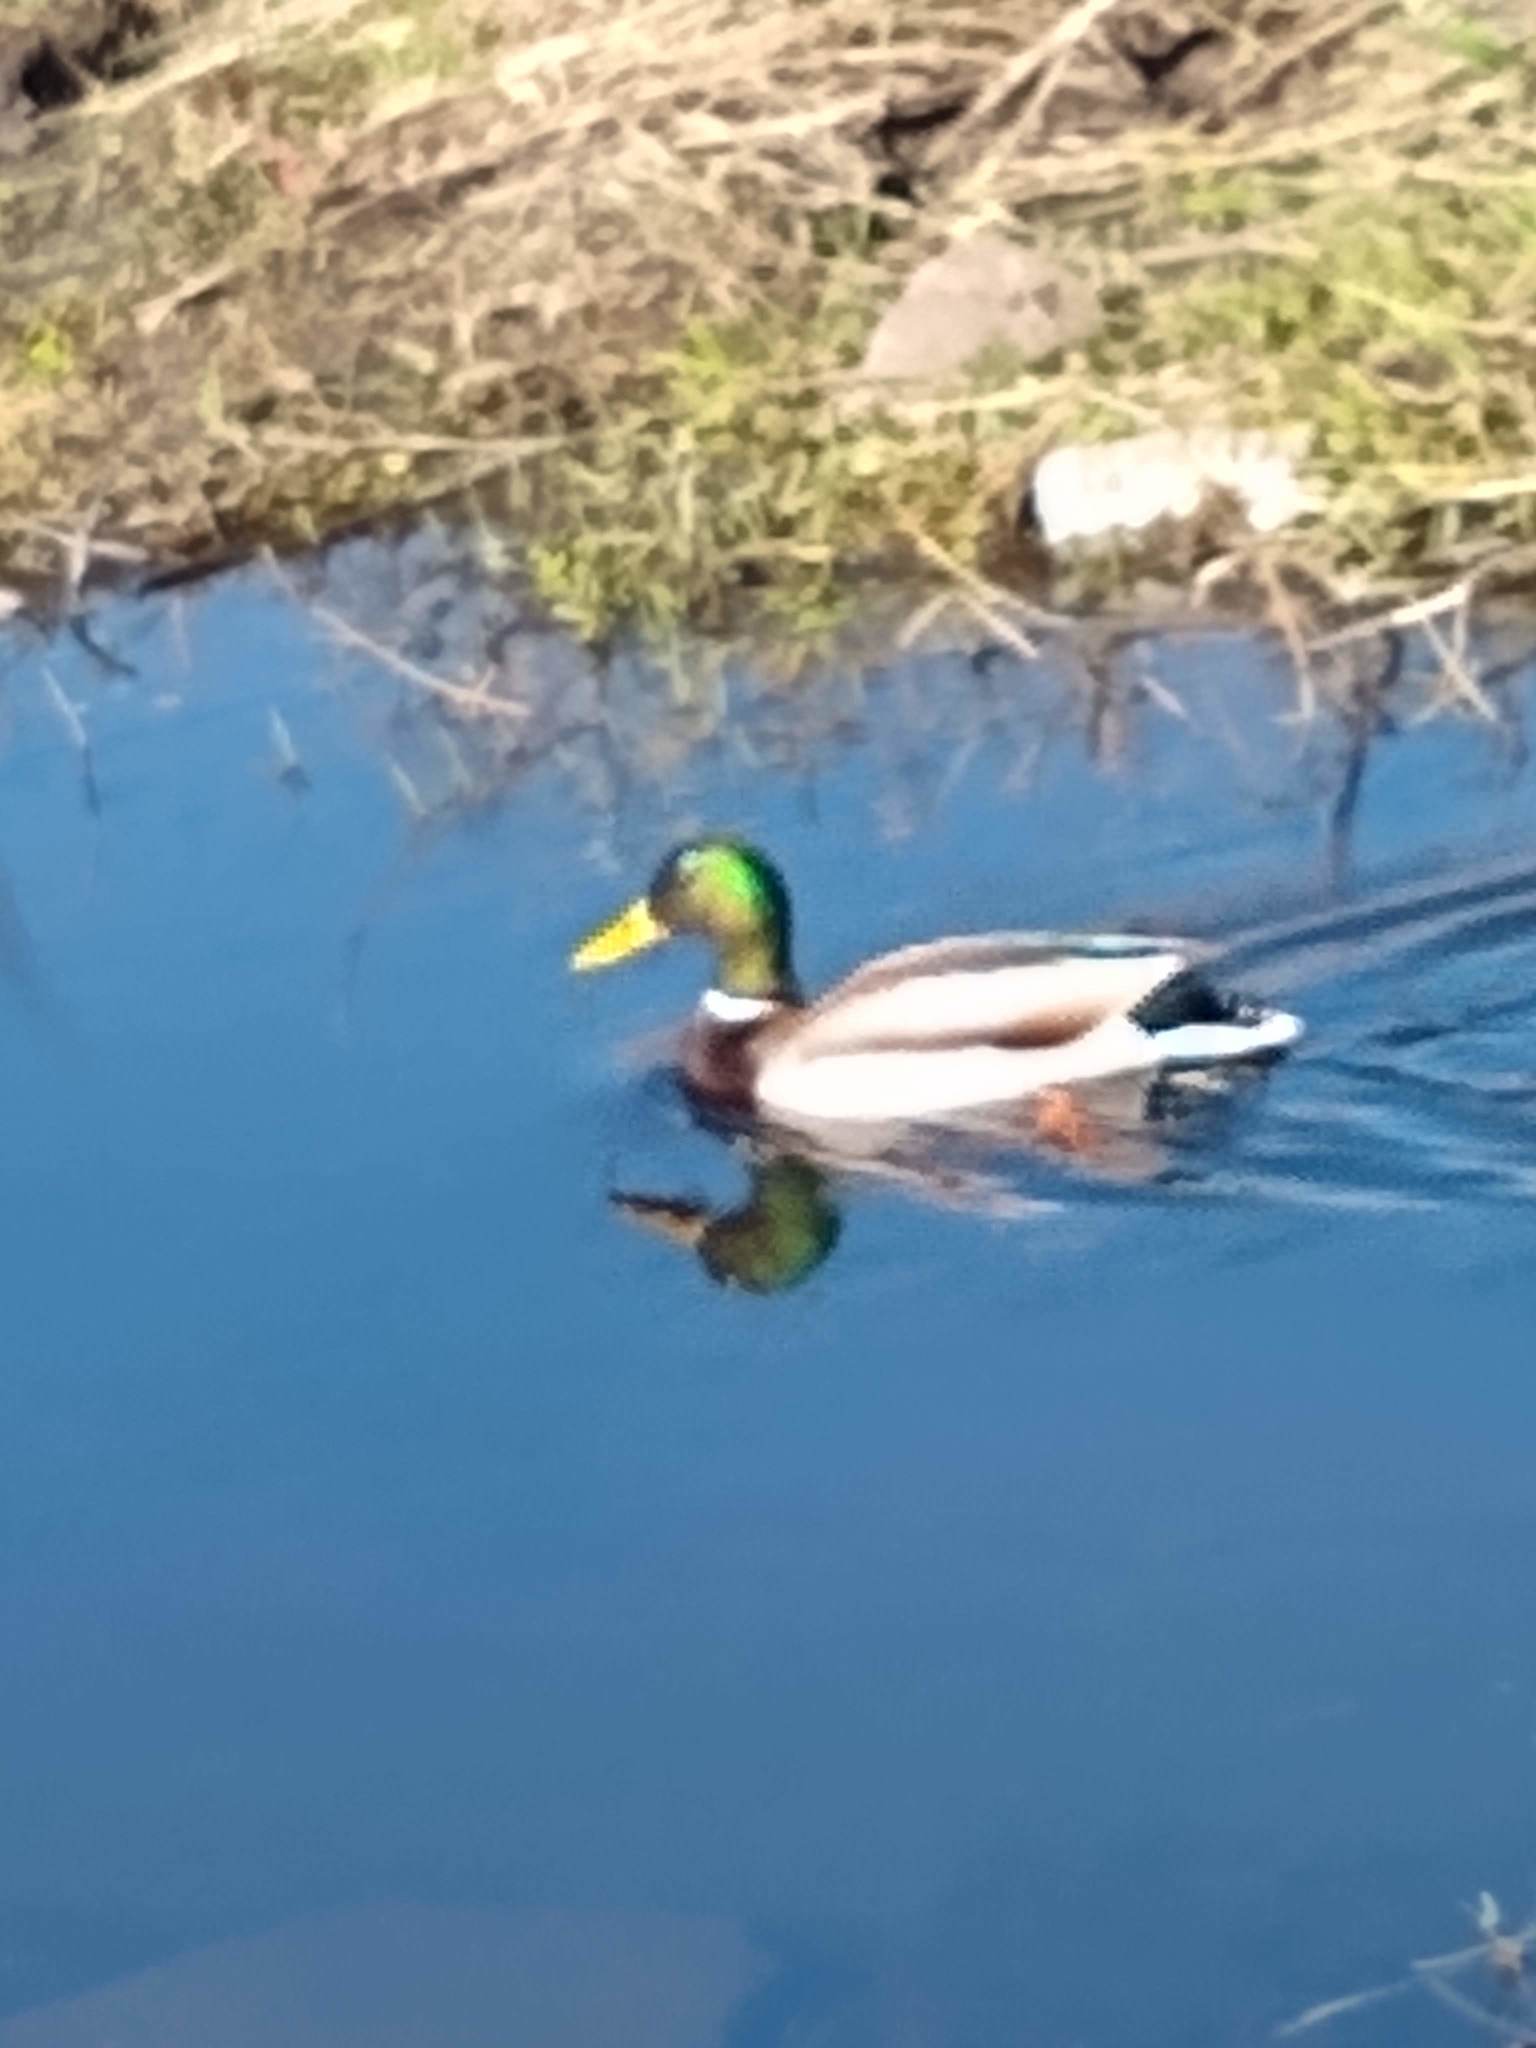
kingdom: Animalia
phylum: Chordata
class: Aves
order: Anseriformes
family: Anatidae
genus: Anas
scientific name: Anas platyrhynchos
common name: Mallard
